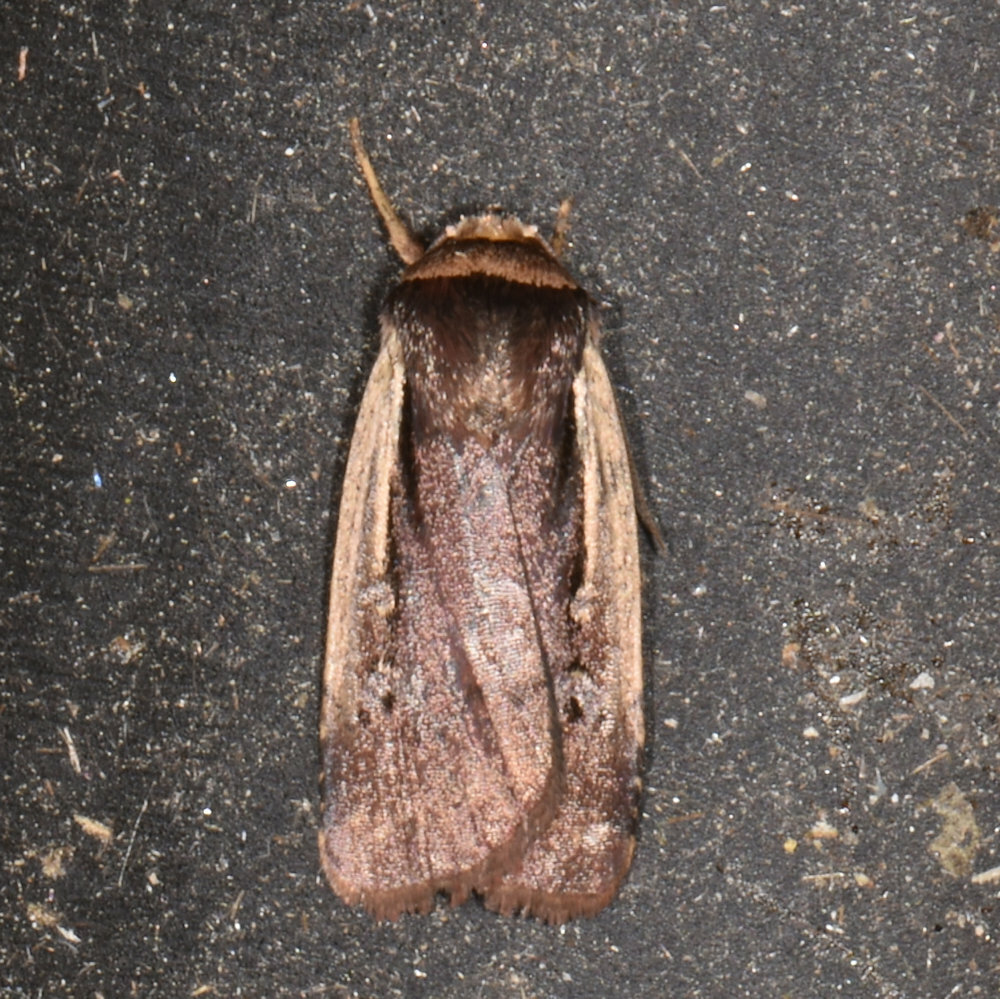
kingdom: Animalia
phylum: Arthropoda
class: Insecta
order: Lepidoptera
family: Noctuidae
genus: Ochropleura
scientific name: Ochropleura implecta
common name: Flame-shouldered dart
